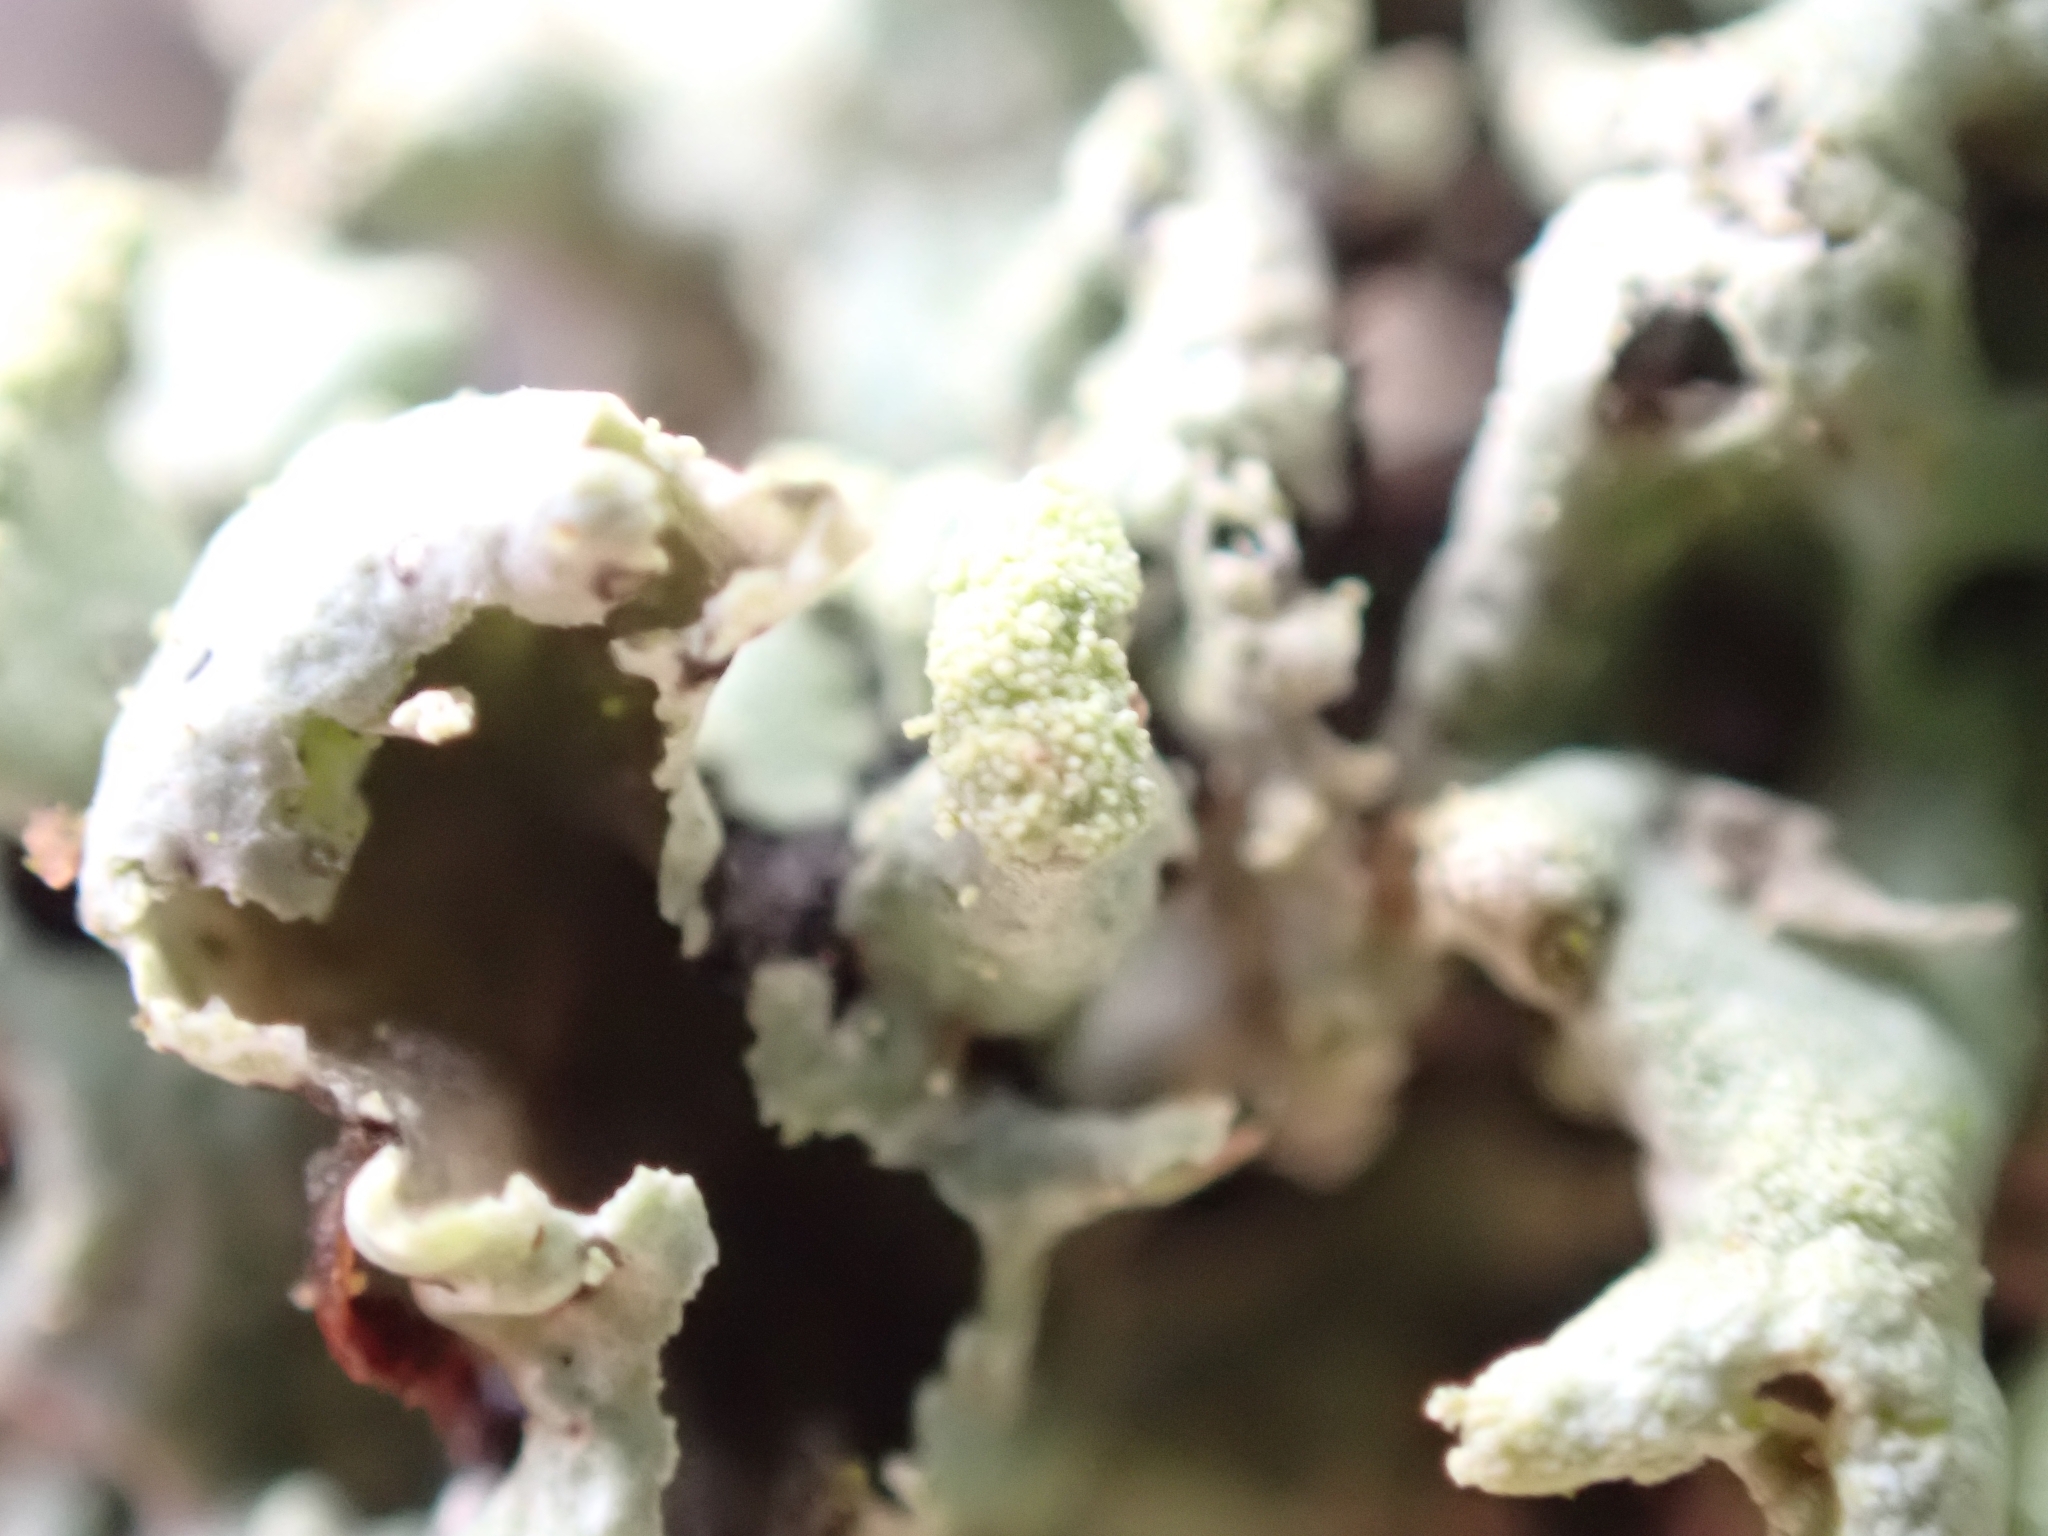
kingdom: Fungi
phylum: Ascomycota
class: Lecanoromycetes
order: Lecanorales
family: Parmeliaceae
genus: Hypogymnia
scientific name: Hypogymnia tubulosa
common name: Powder-headed tube lichen
